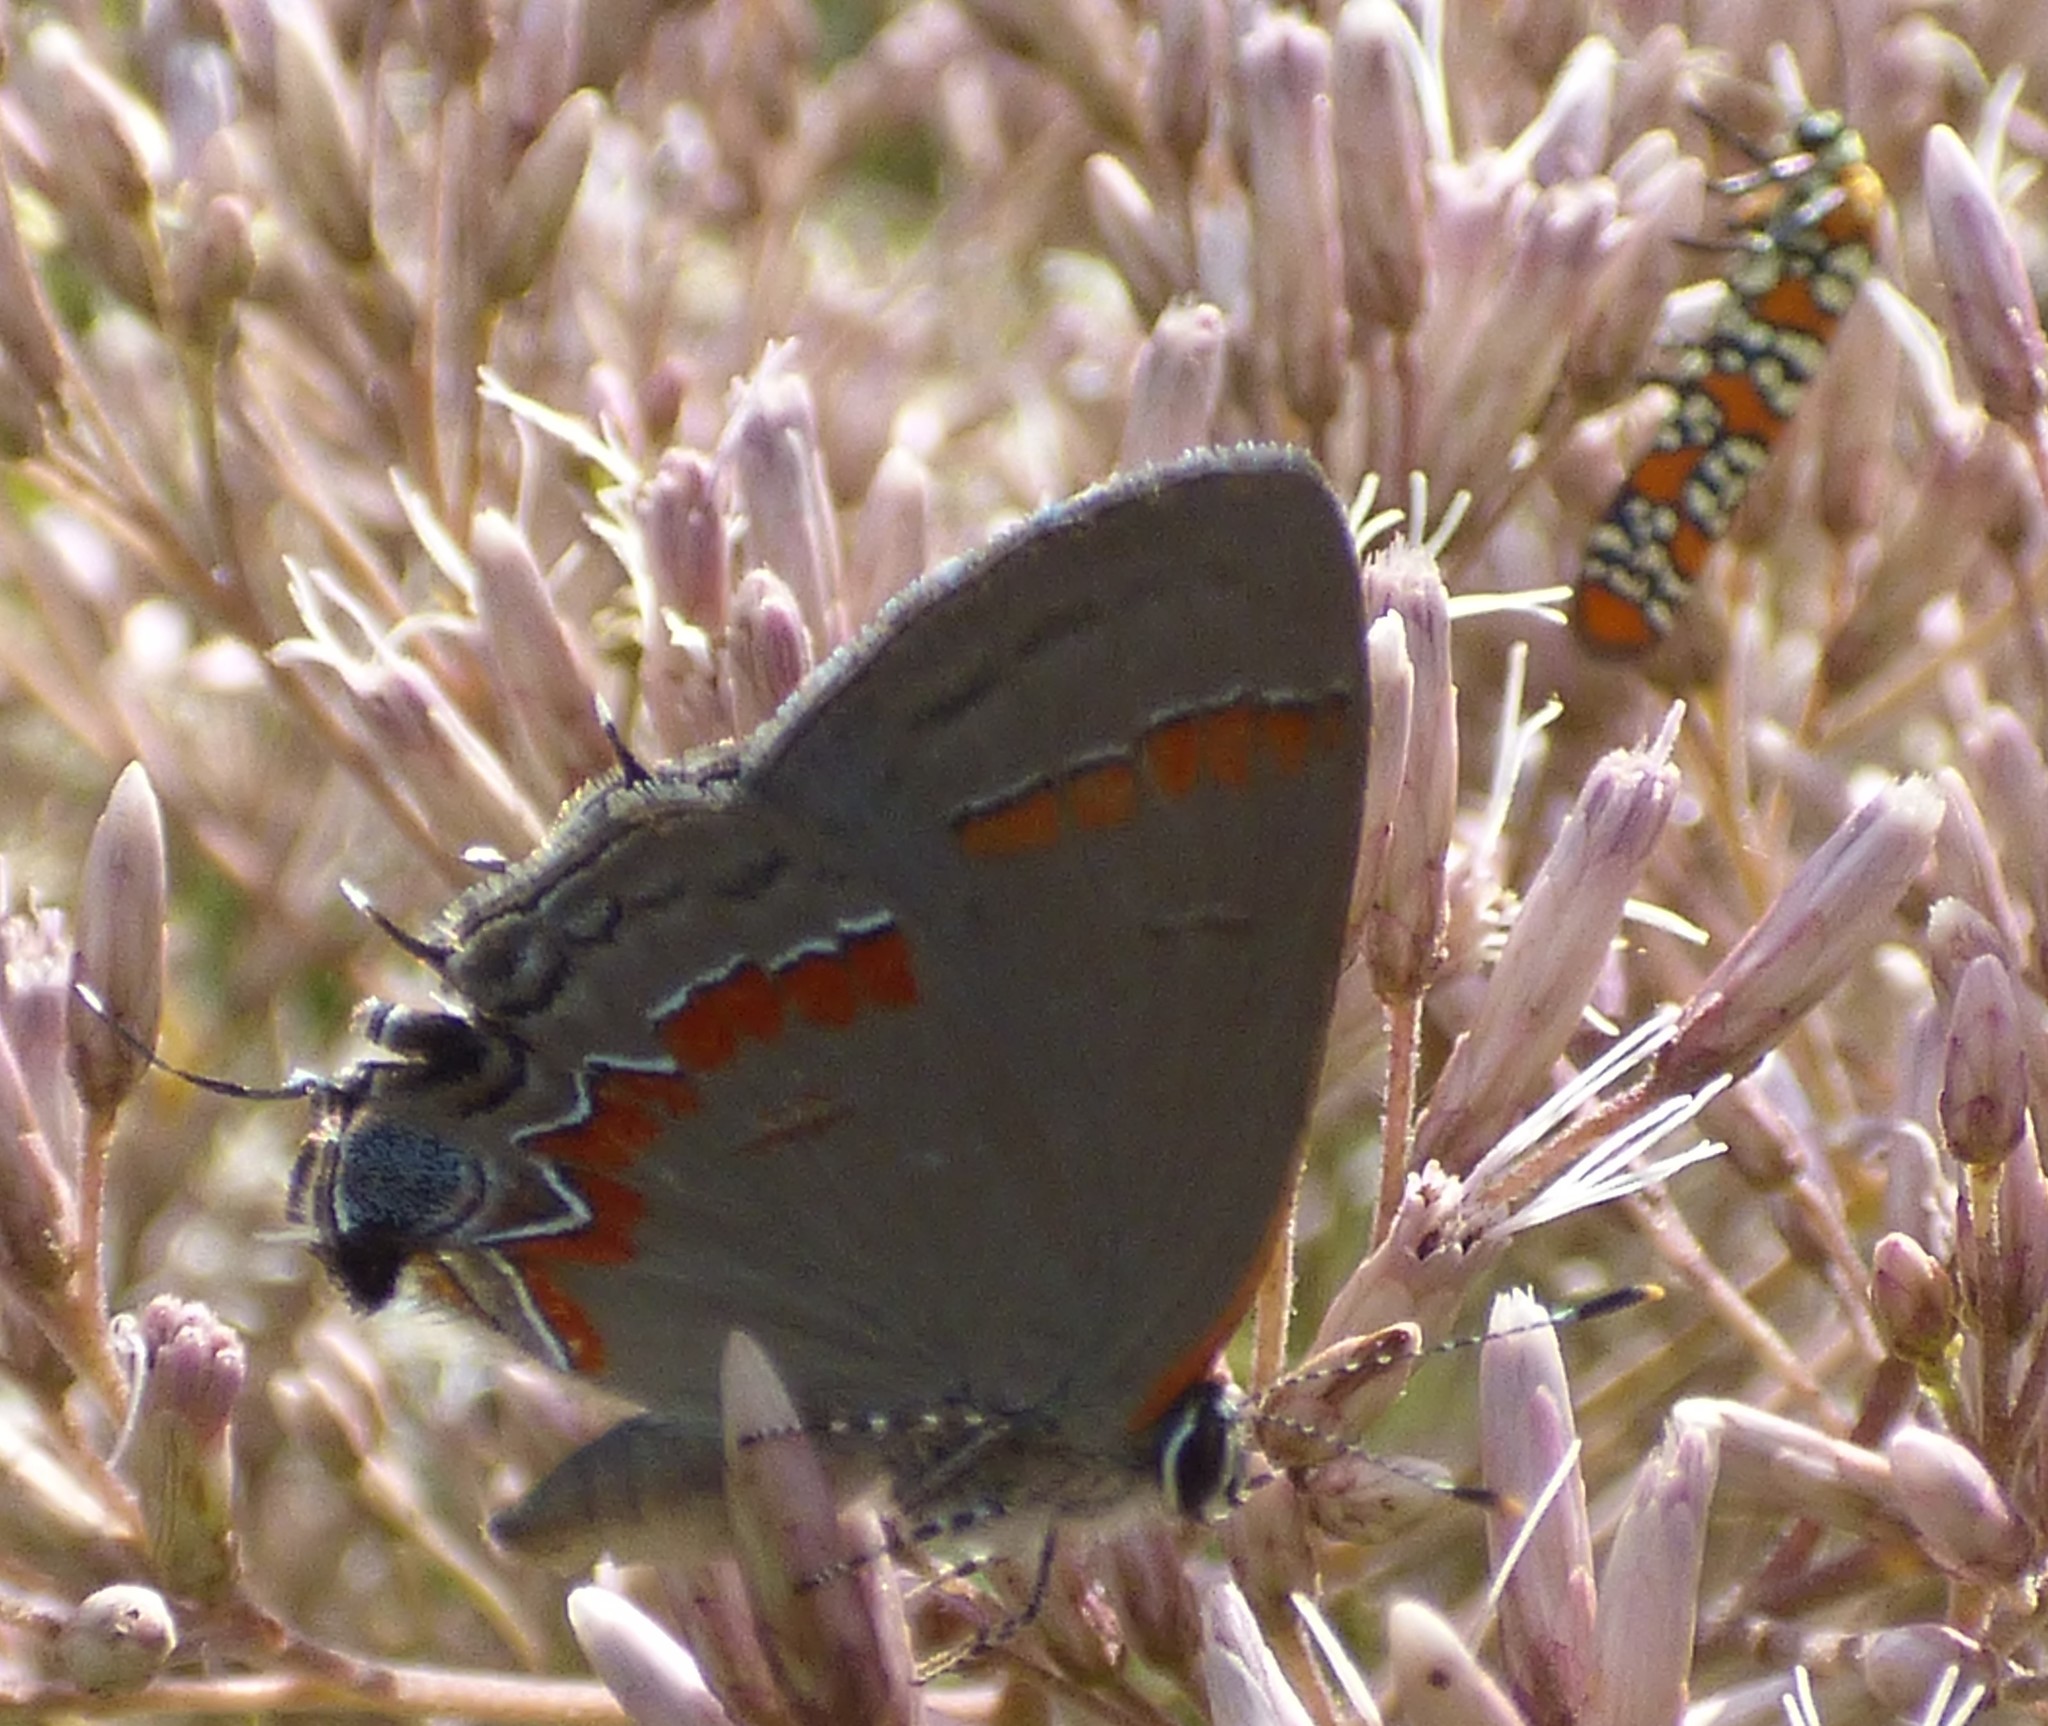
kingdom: Animalia
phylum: Arthropoda
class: Insecta
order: Lepidoptera
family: Lycaenidae
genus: Calycopis
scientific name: Calycopis cecrops
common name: Red-banded hairstreak
